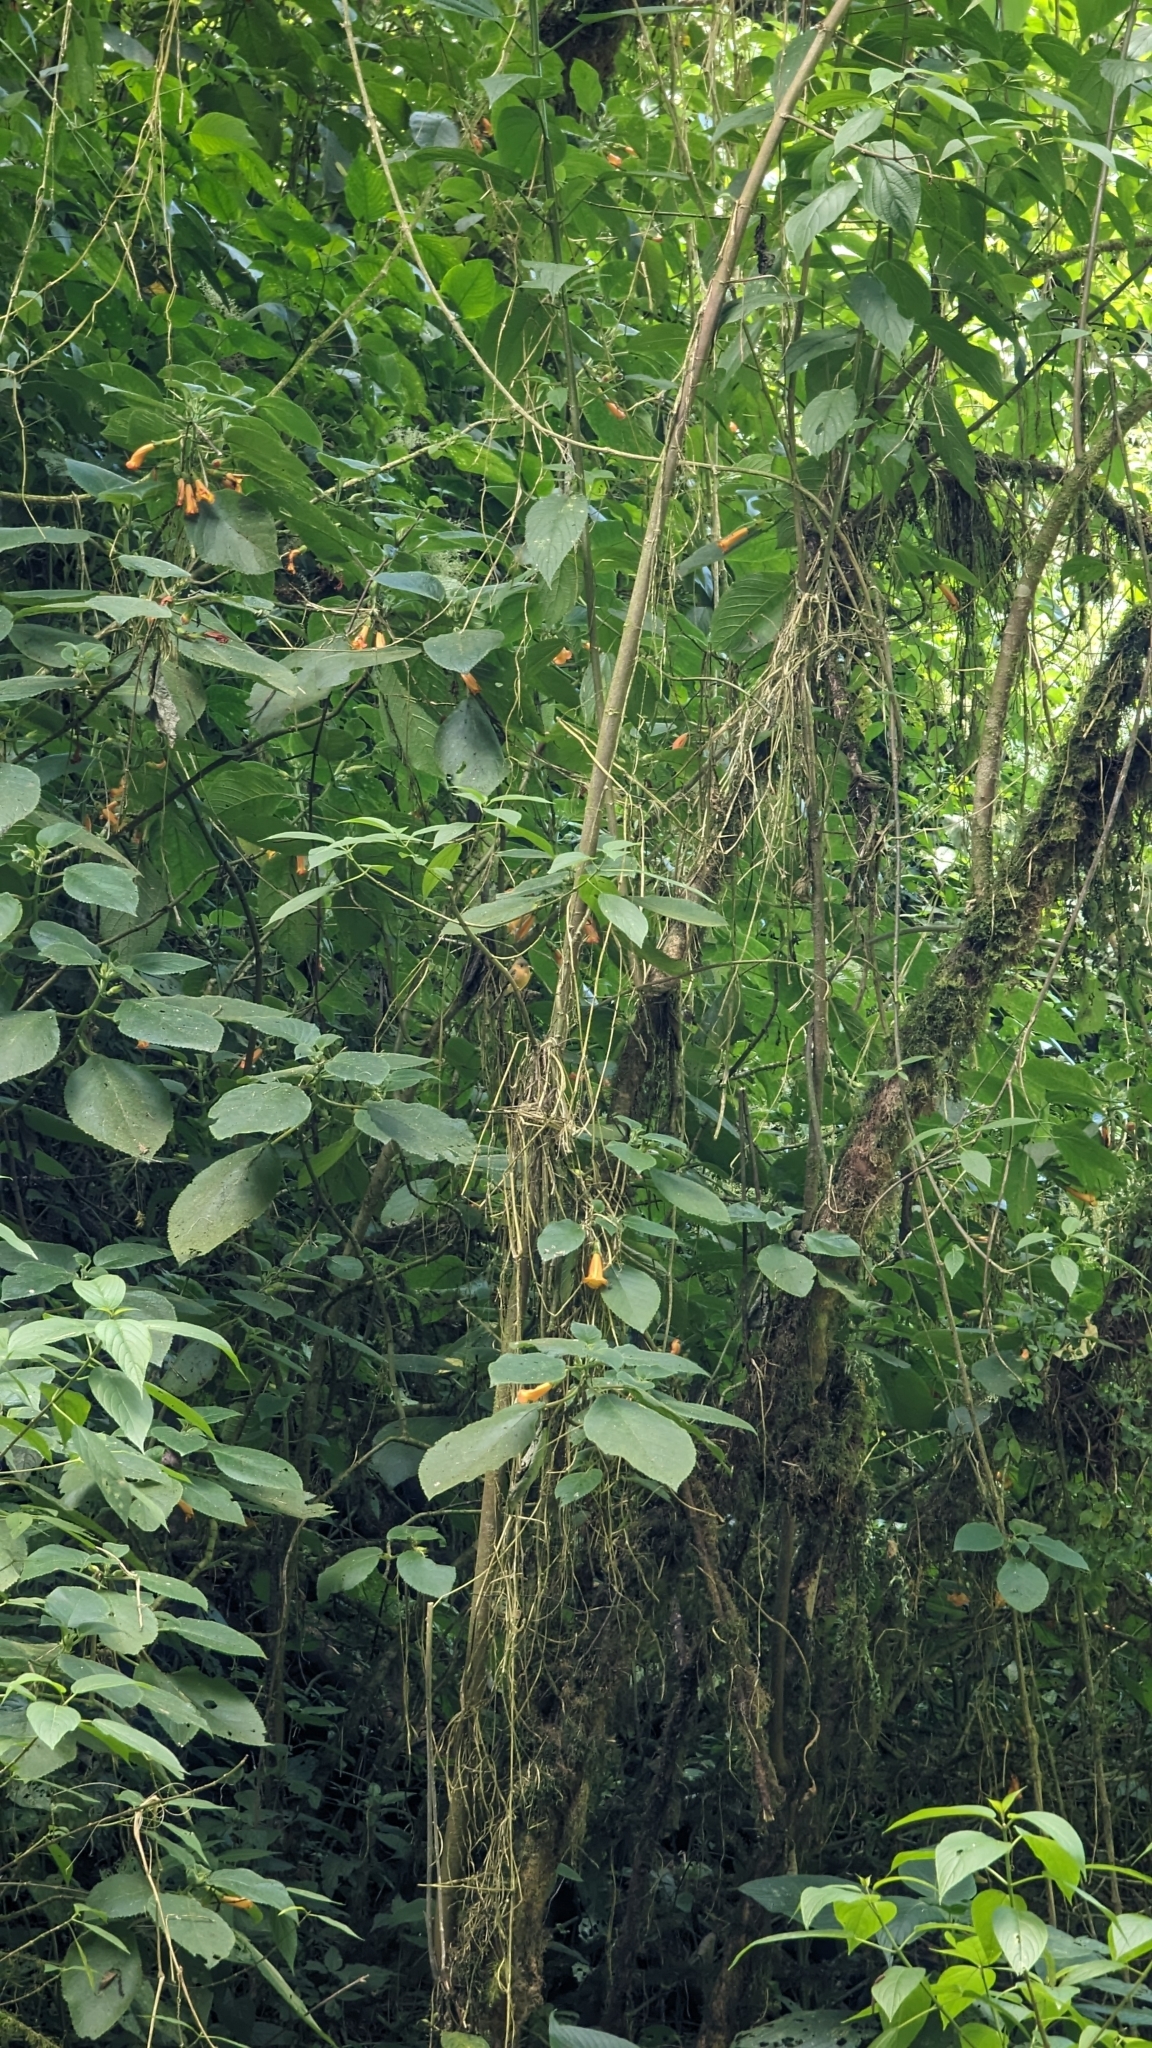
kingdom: Animalia
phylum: Chordata
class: Aves
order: Passeriformes
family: Tyrannidae
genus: Mitrephanes
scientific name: Mitrephanes phaeocercus
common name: Northern tufted flycatcher
